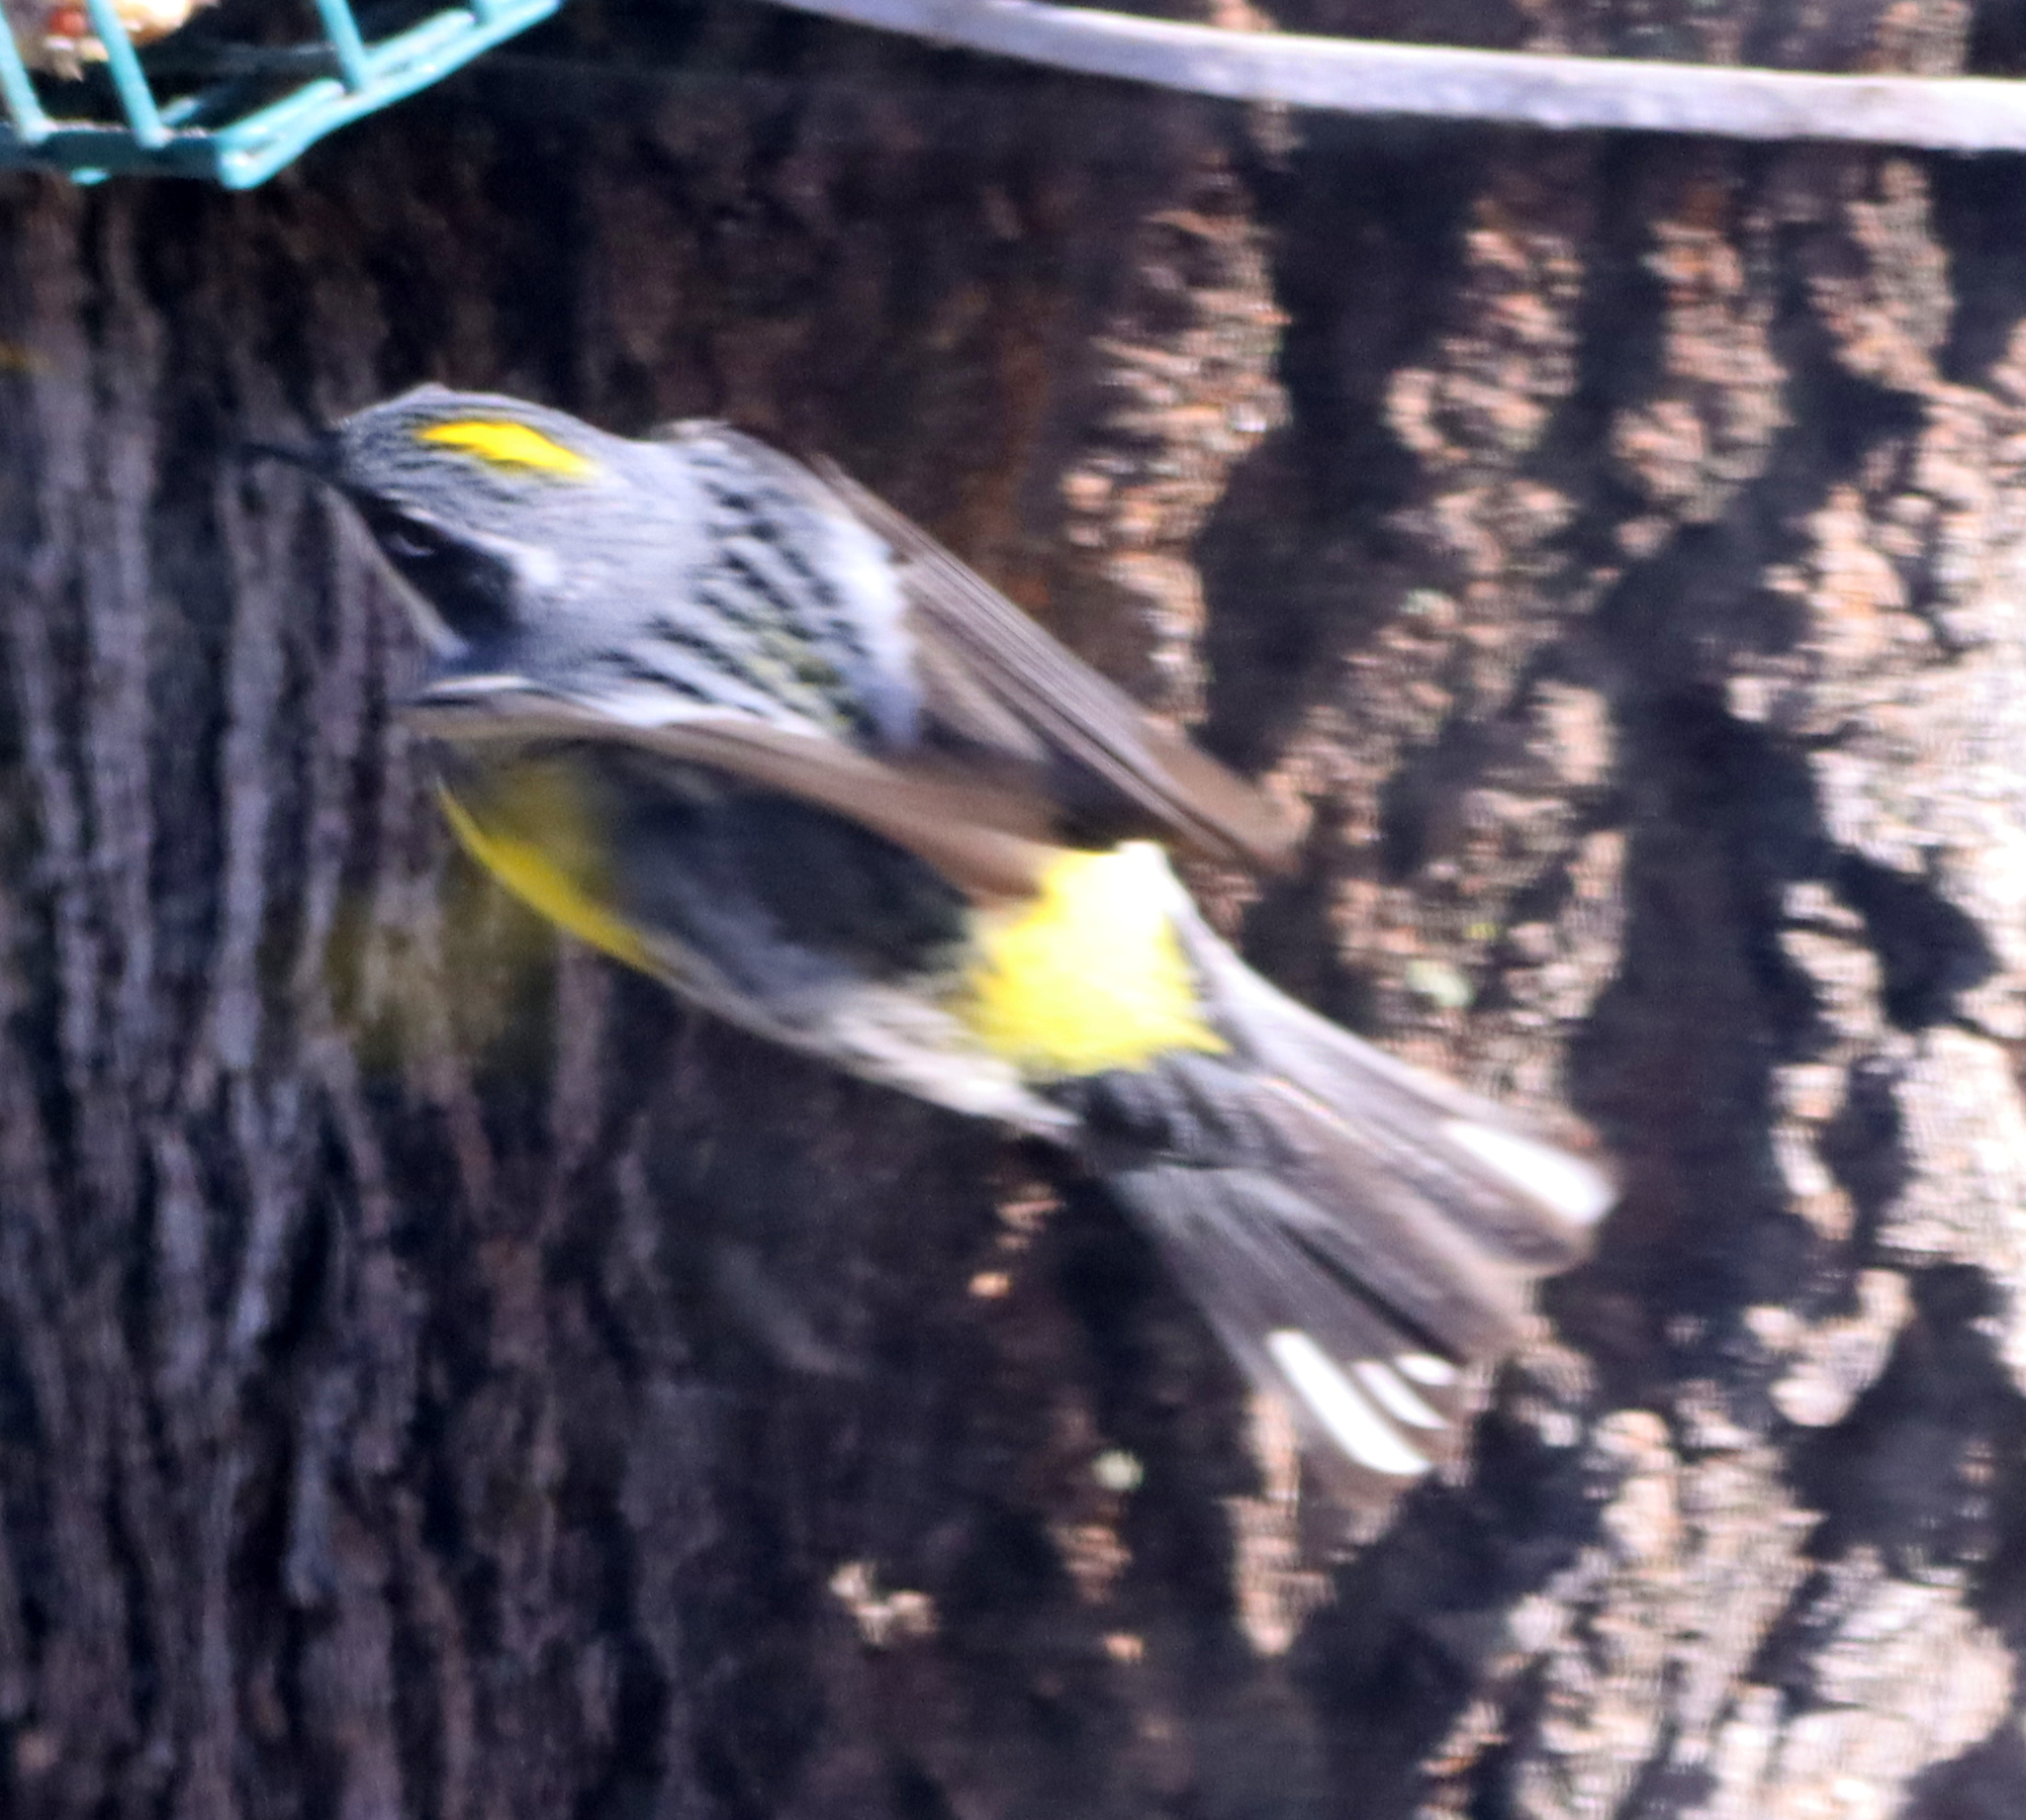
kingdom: Animalia
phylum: Chordata
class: Aves
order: Passeriformes
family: Parulidae
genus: Setophaga
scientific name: Setophaga coronata
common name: Myrtle warbler
